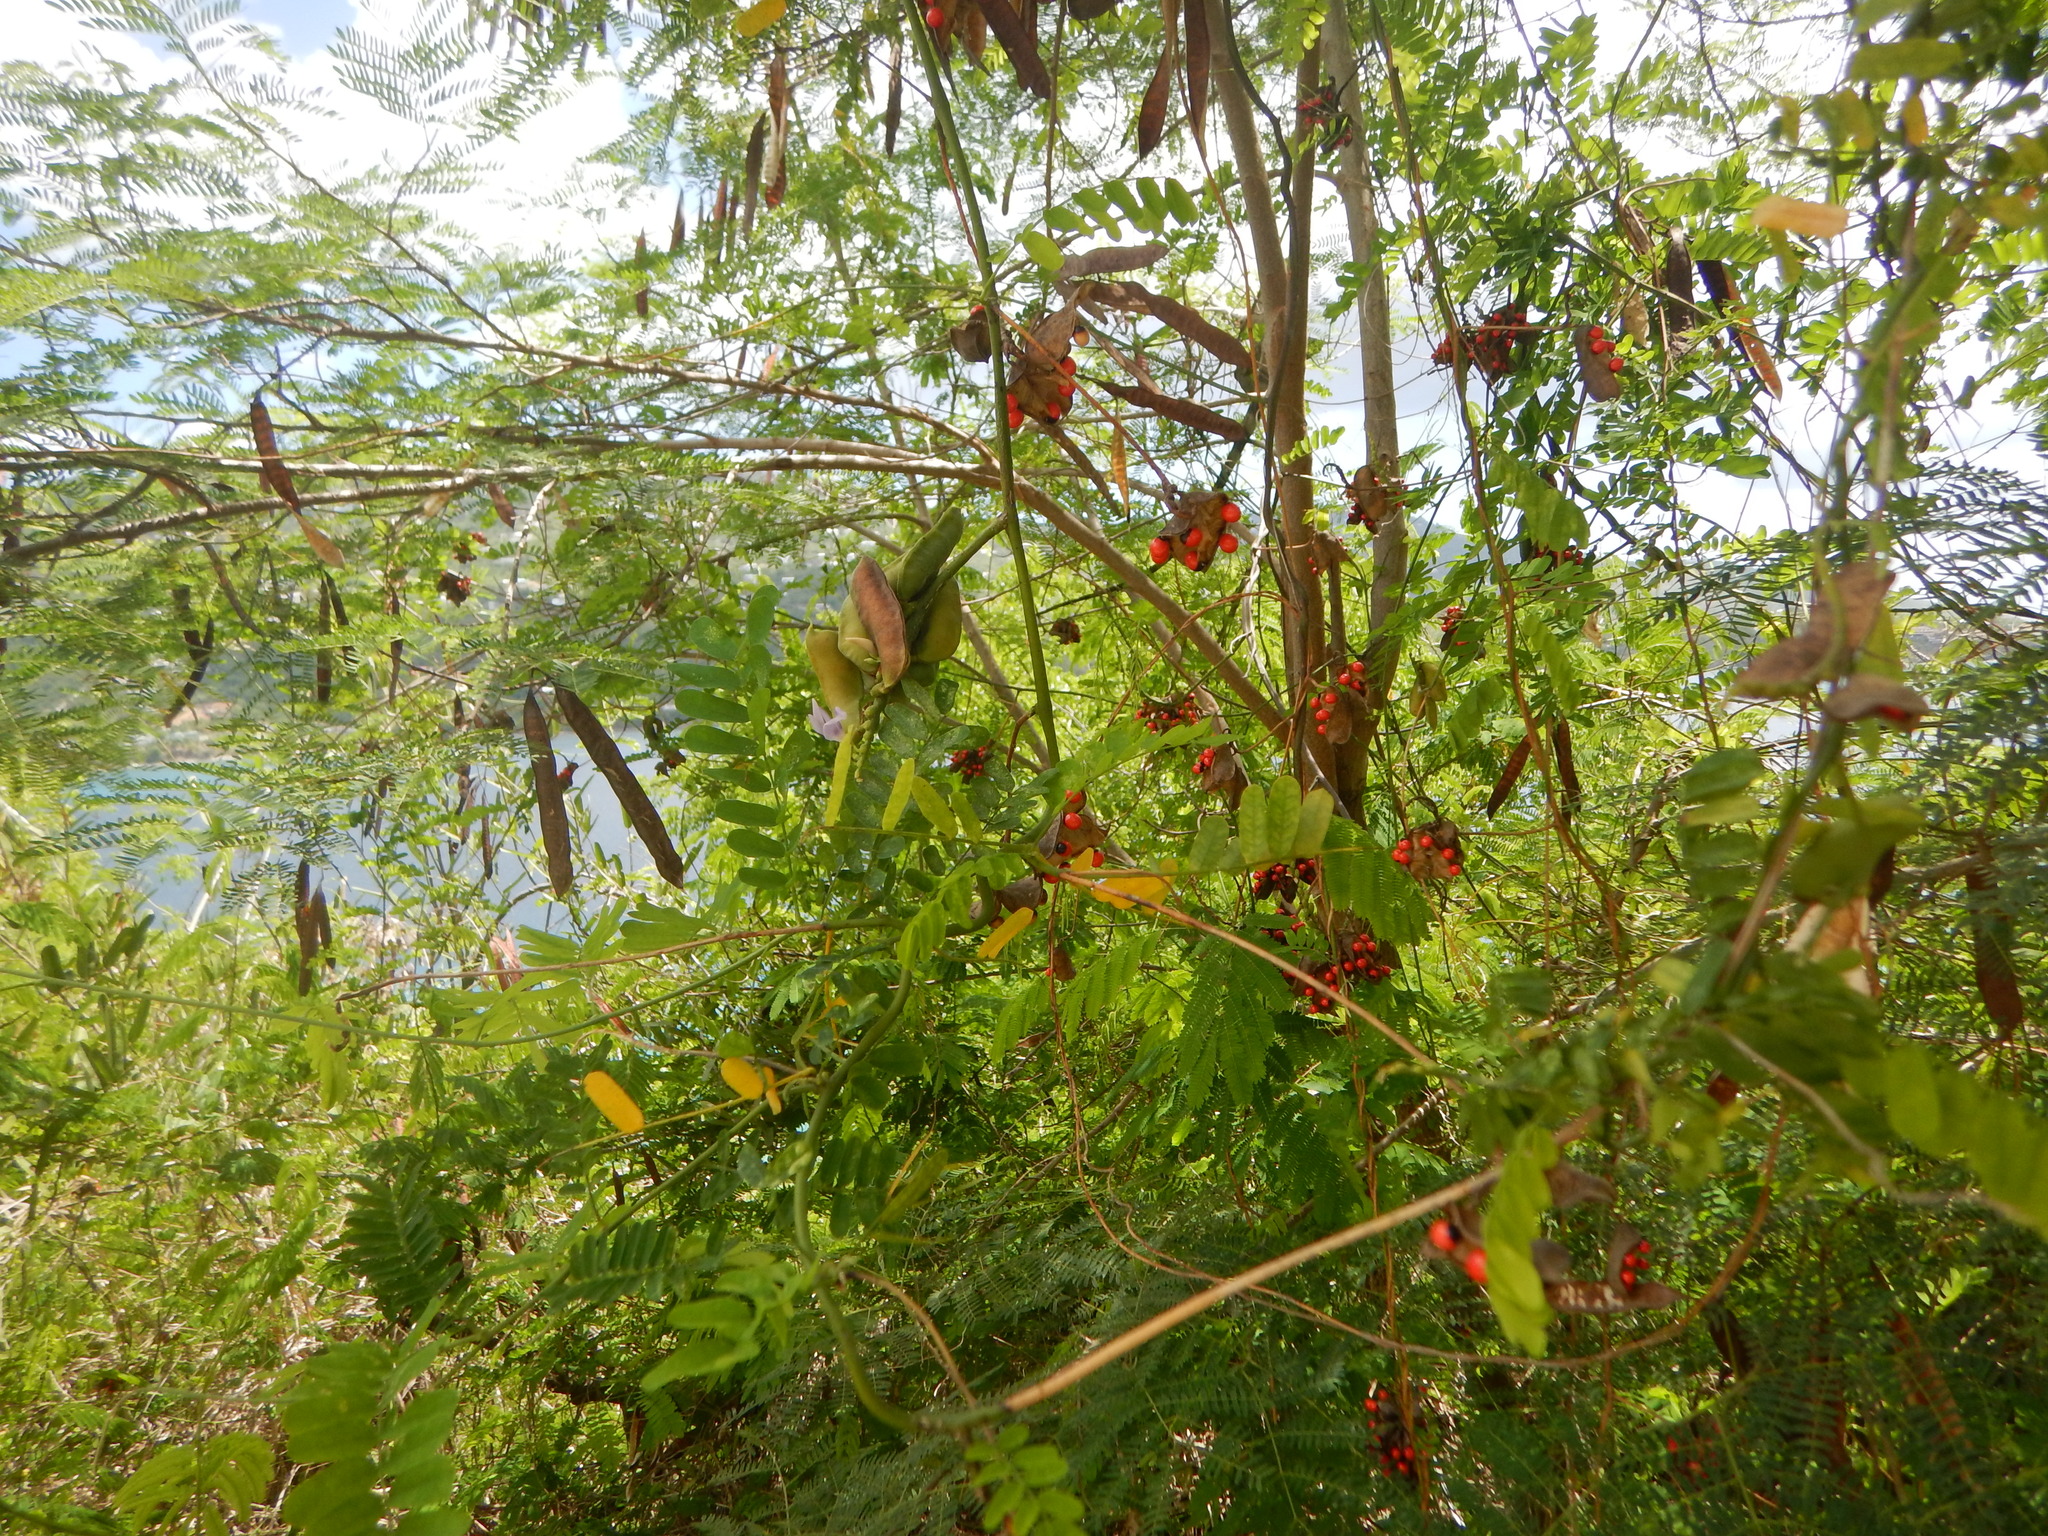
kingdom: Plantae
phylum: Tracheophyta
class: Magnoliopsida
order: Fabales
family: Fabaceae
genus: Abrus
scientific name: Abrus precatorius
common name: Rosarypea
